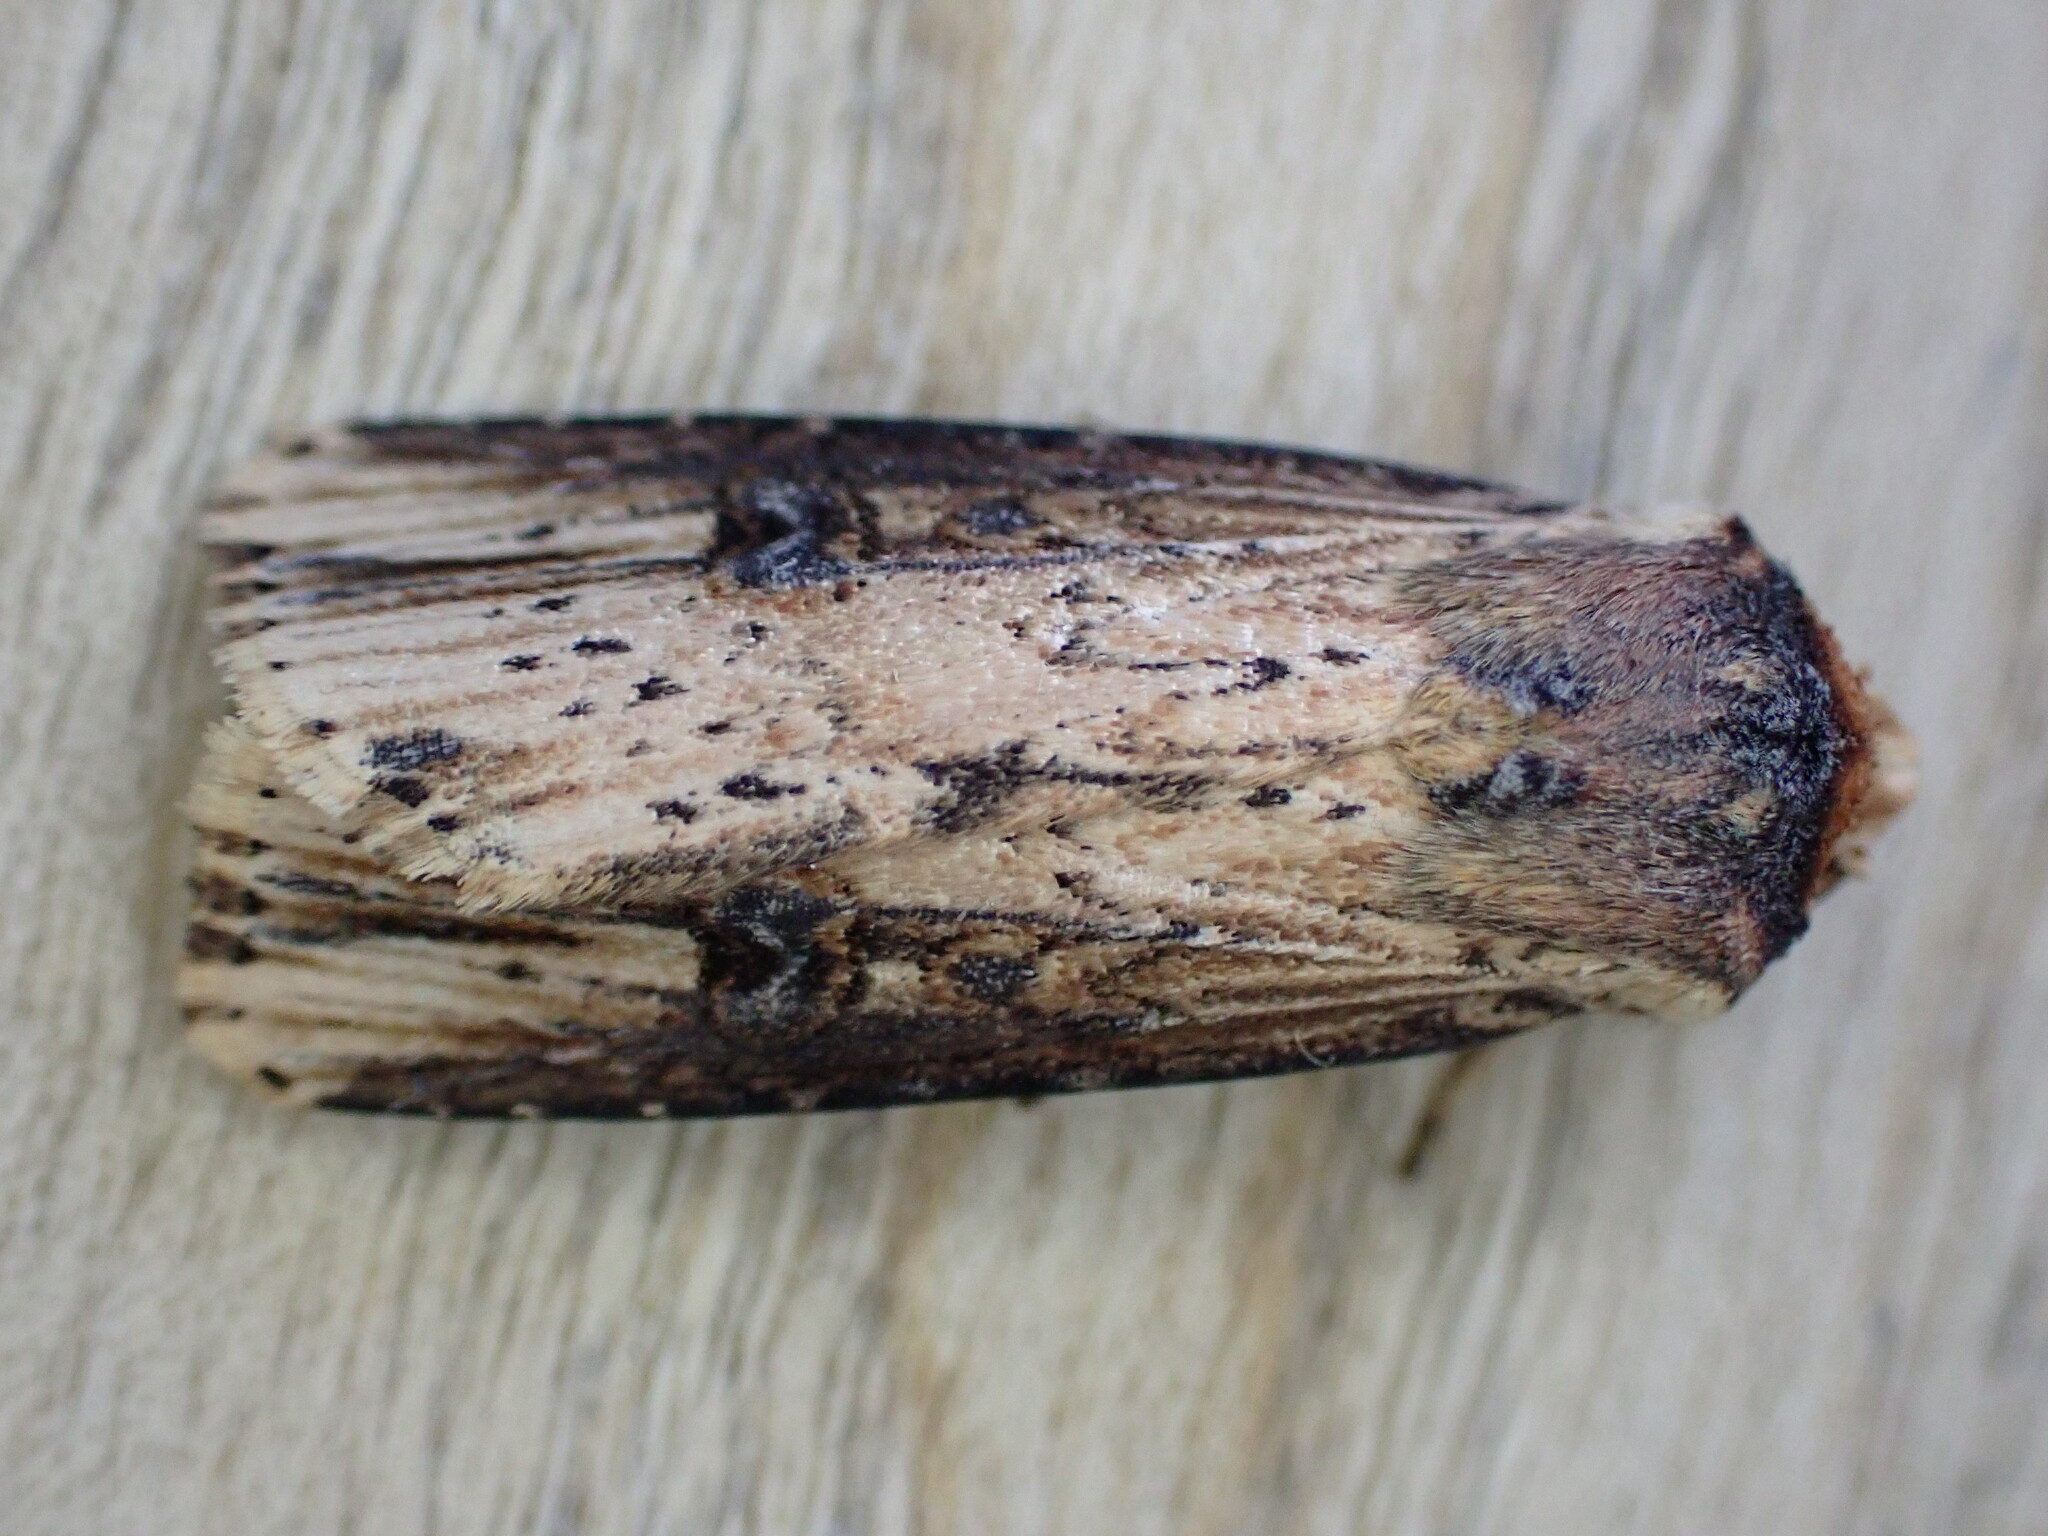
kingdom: Animalia
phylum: Arthropoda
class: Insecta
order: Lepidoptera
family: Noctuidae
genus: Axylia
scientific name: Axylia putris
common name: Flame
